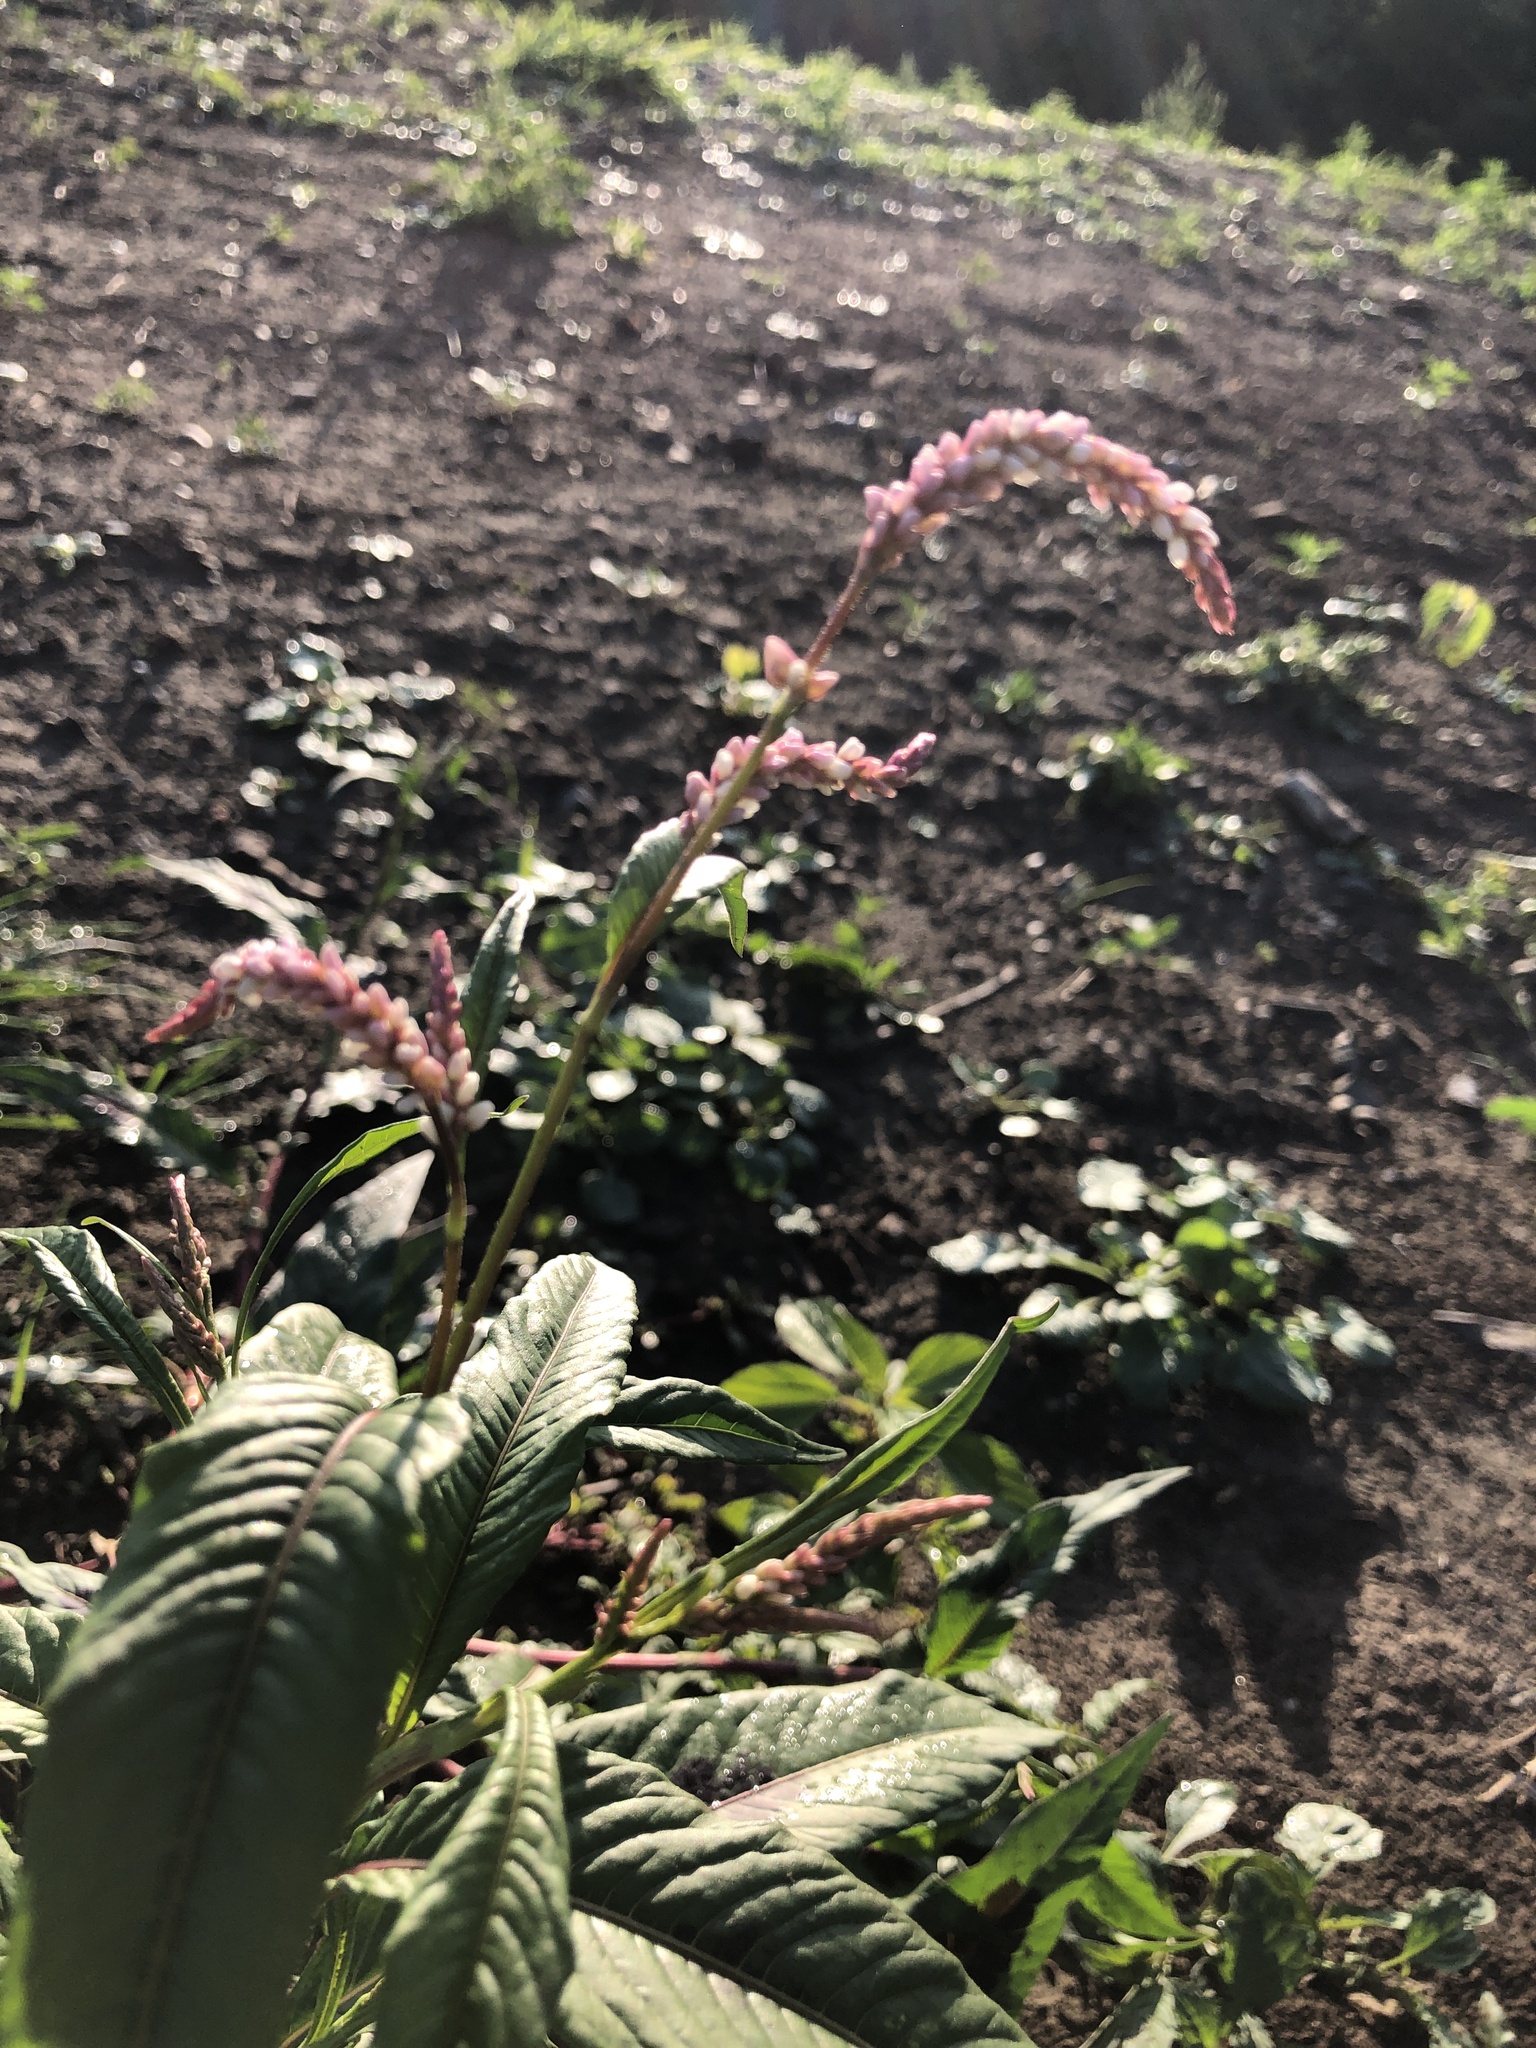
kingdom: Plantae
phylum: Tracheophyta
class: Magnoliopsida
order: Caryophyllales
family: Polygonaceae
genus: Persicaria
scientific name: Persicaria lapathifolia
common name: Curlytop knotweed
